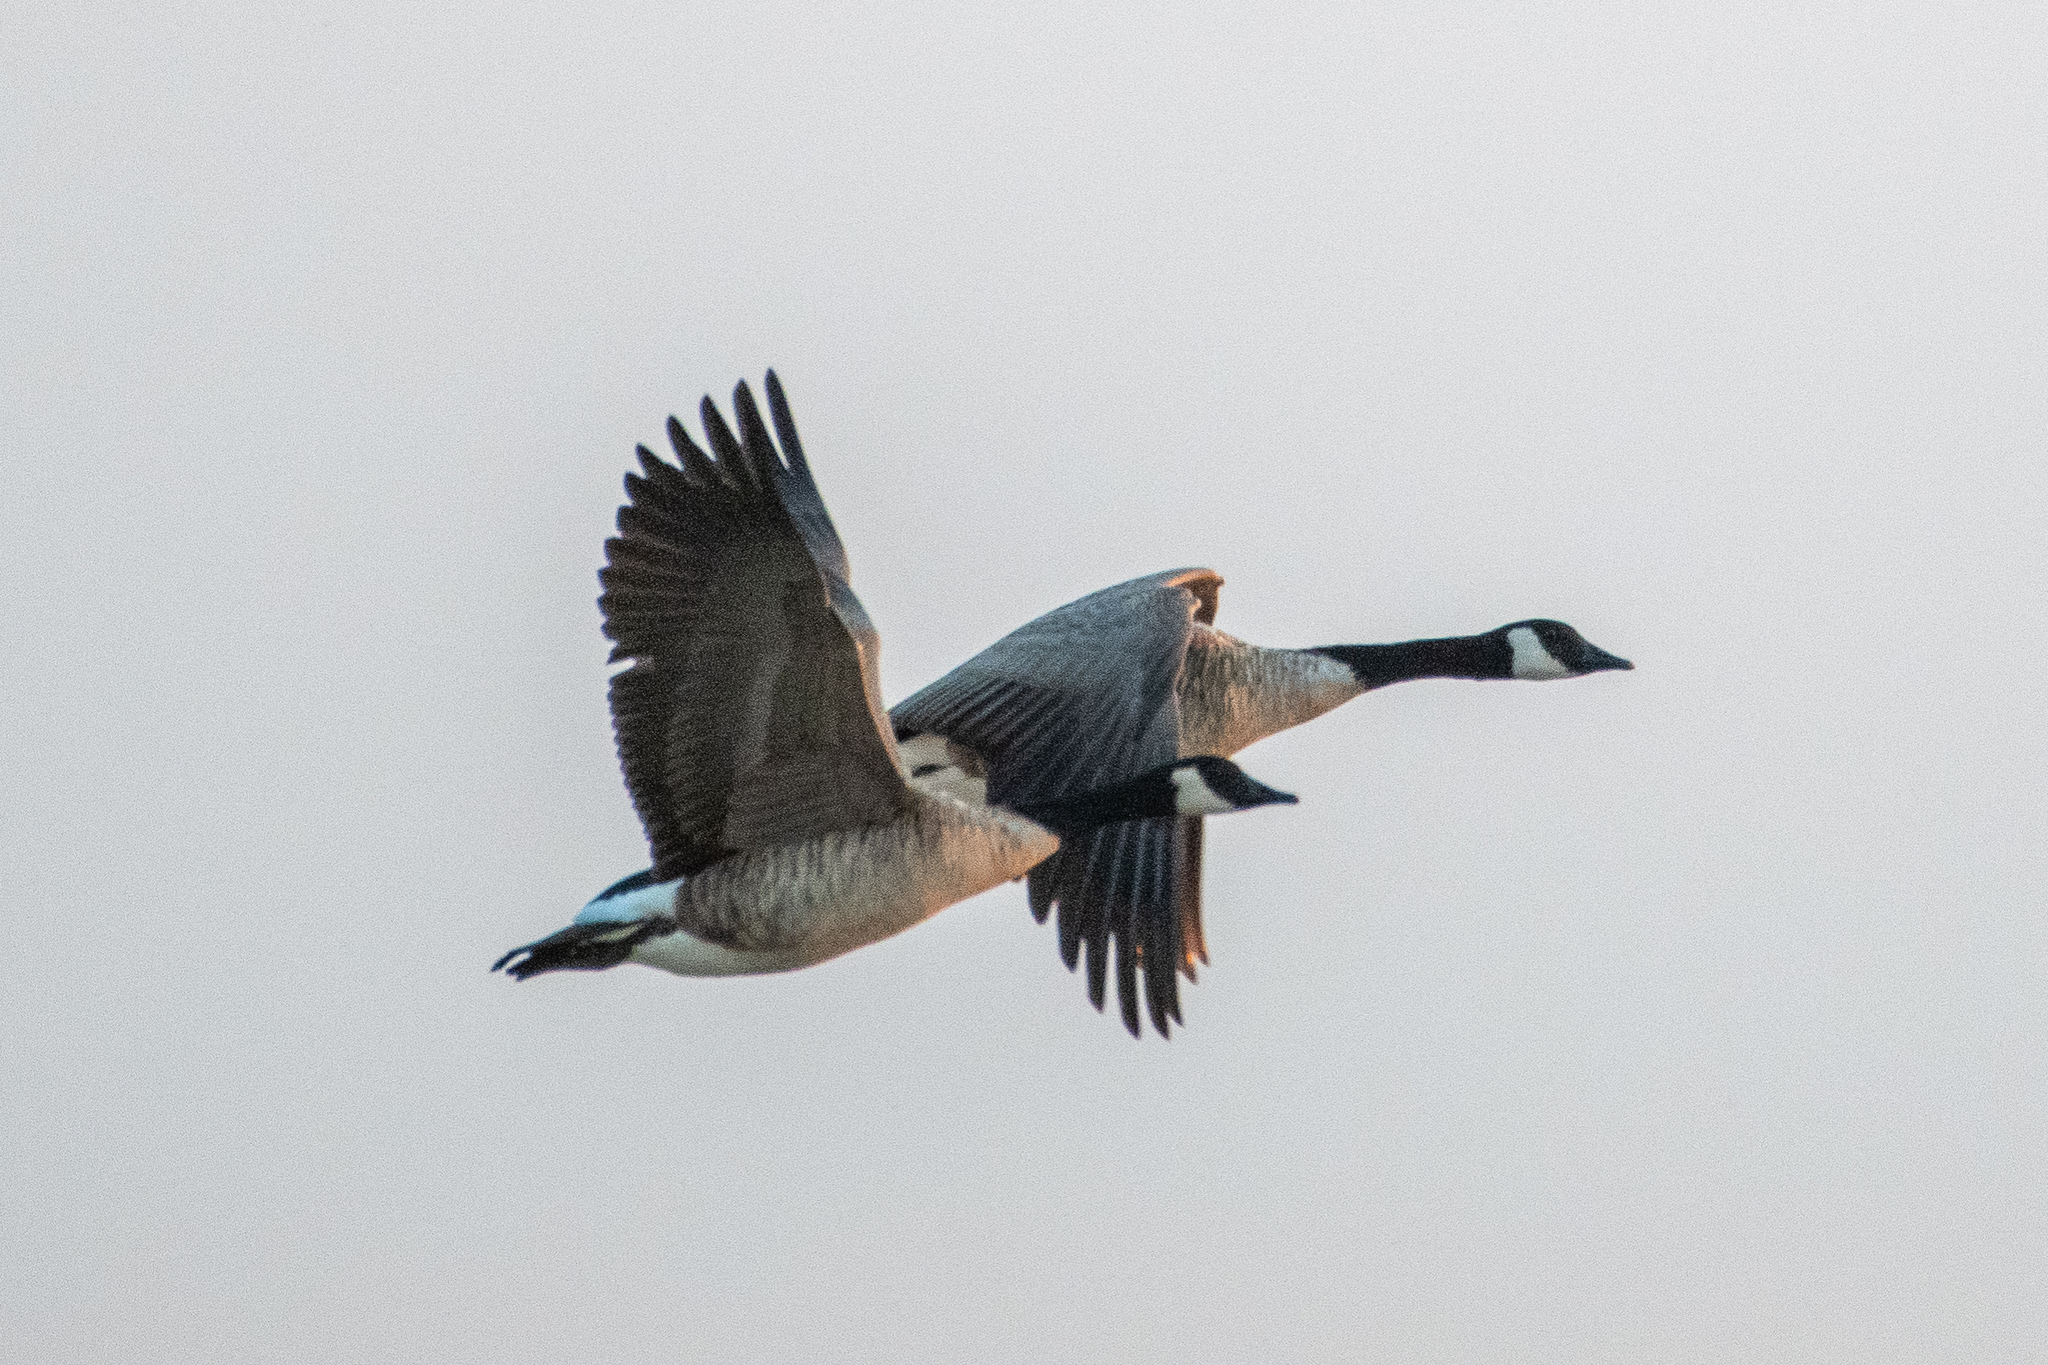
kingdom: Animalia
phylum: Chordata
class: Aves
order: Anseriformes
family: Anatidae
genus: Branta
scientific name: Branta canadensis
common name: Canada goose
